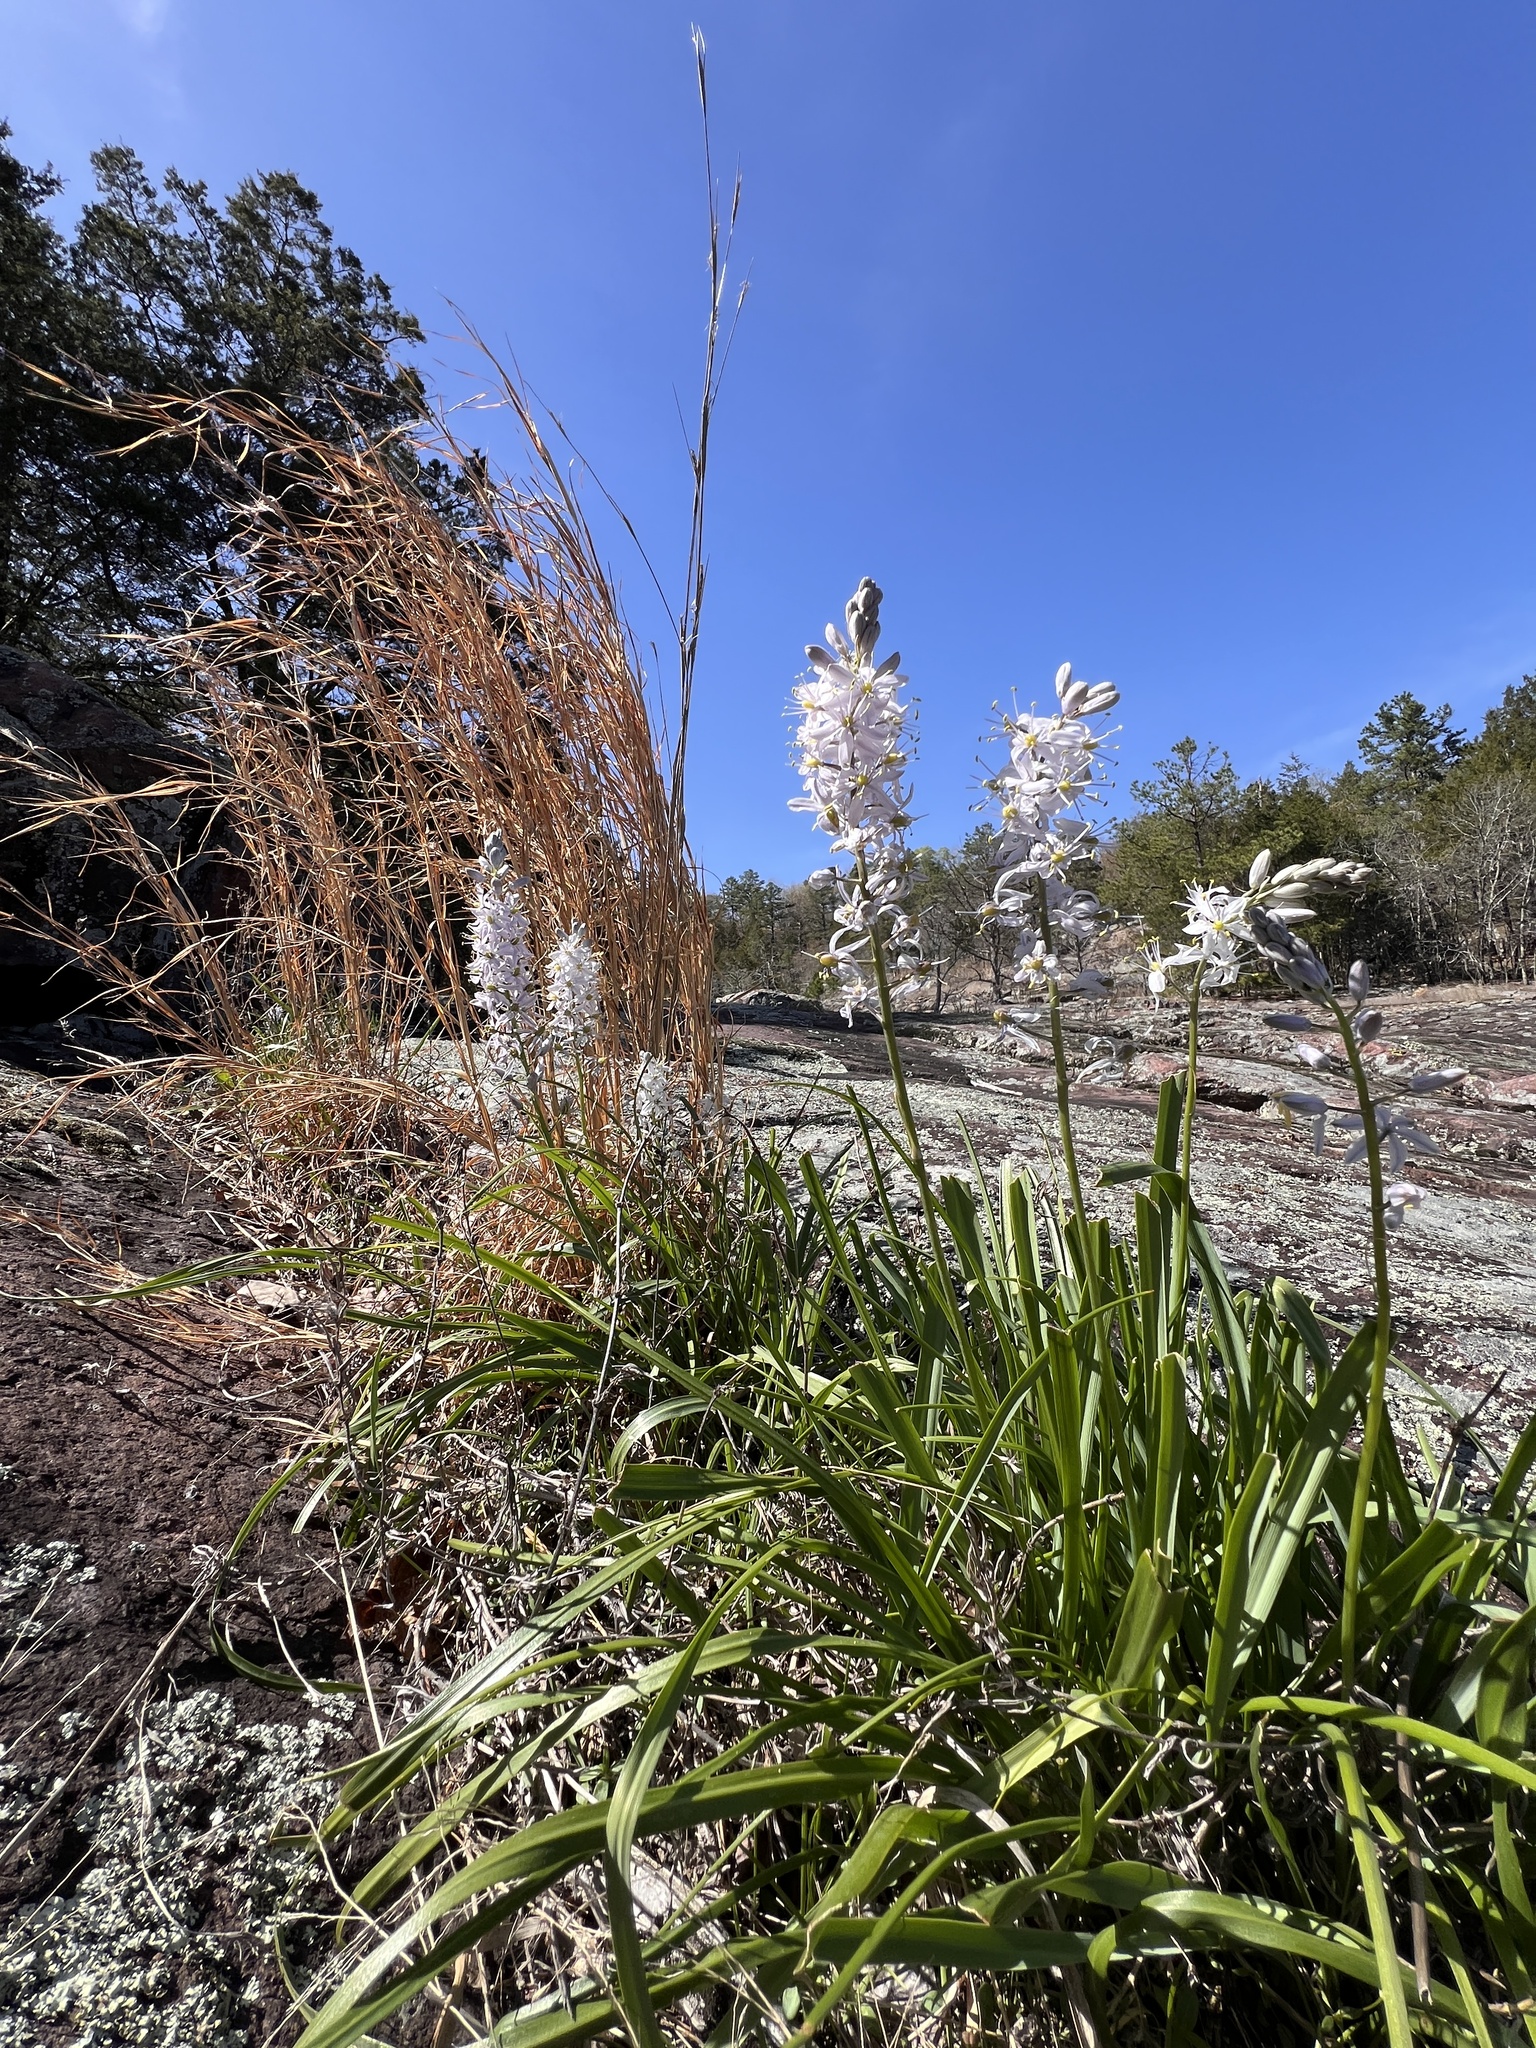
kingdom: Plantae
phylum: Tracheophyta
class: Liliopsida
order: Asparagales
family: Asparagaceae
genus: Camassia
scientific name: Camassia scilloides
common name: Wild hyacinth
